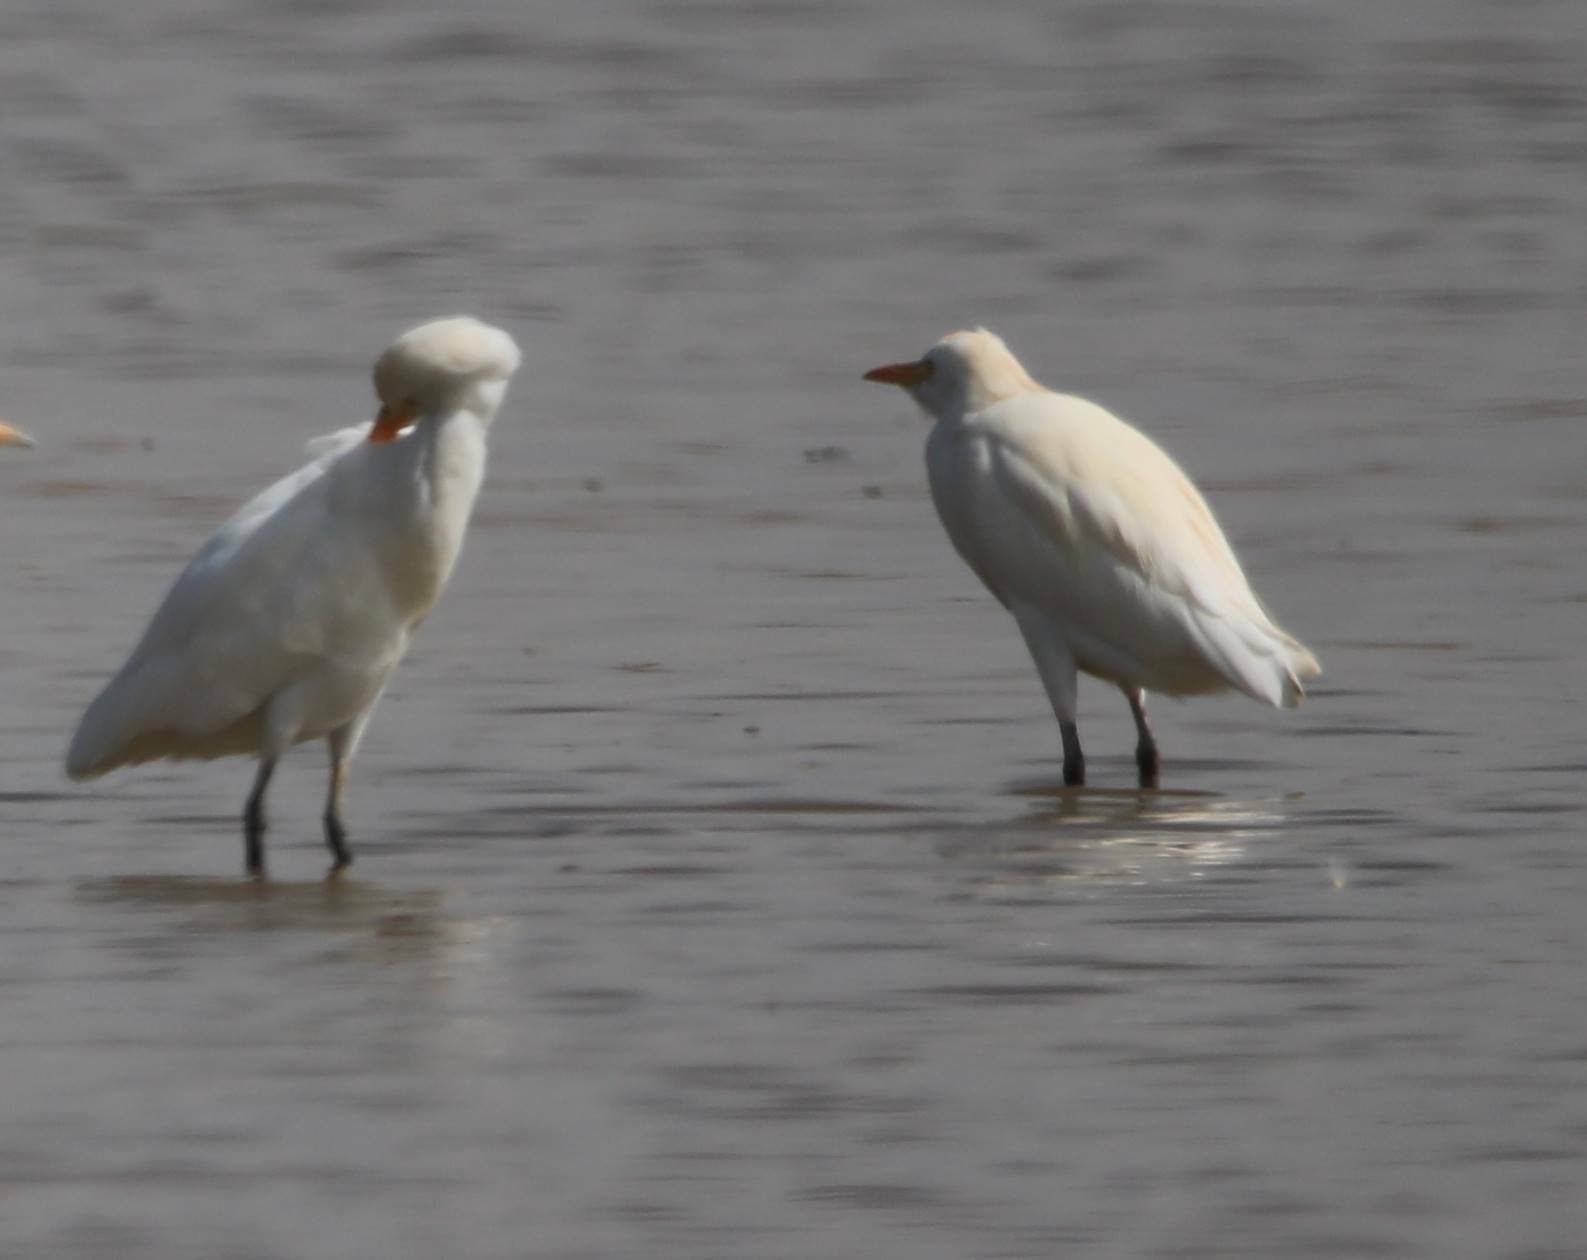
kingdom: Animalia
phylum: Chordata
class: Aves
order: Pelecaniformes
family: Ardeidae
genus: Bubulcus
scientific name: Bubulcus ibis
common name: Cattle egret
